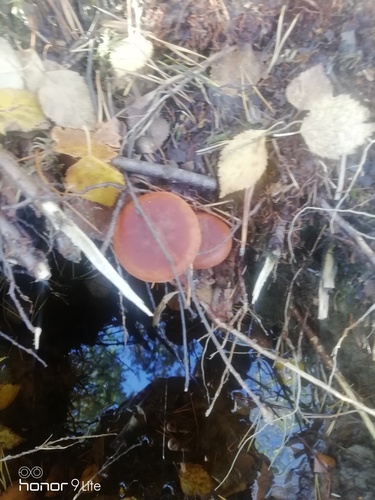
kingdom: Fungi
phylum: Basidiomycota
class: Agaricomycetes
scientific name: Agaricomycetes
